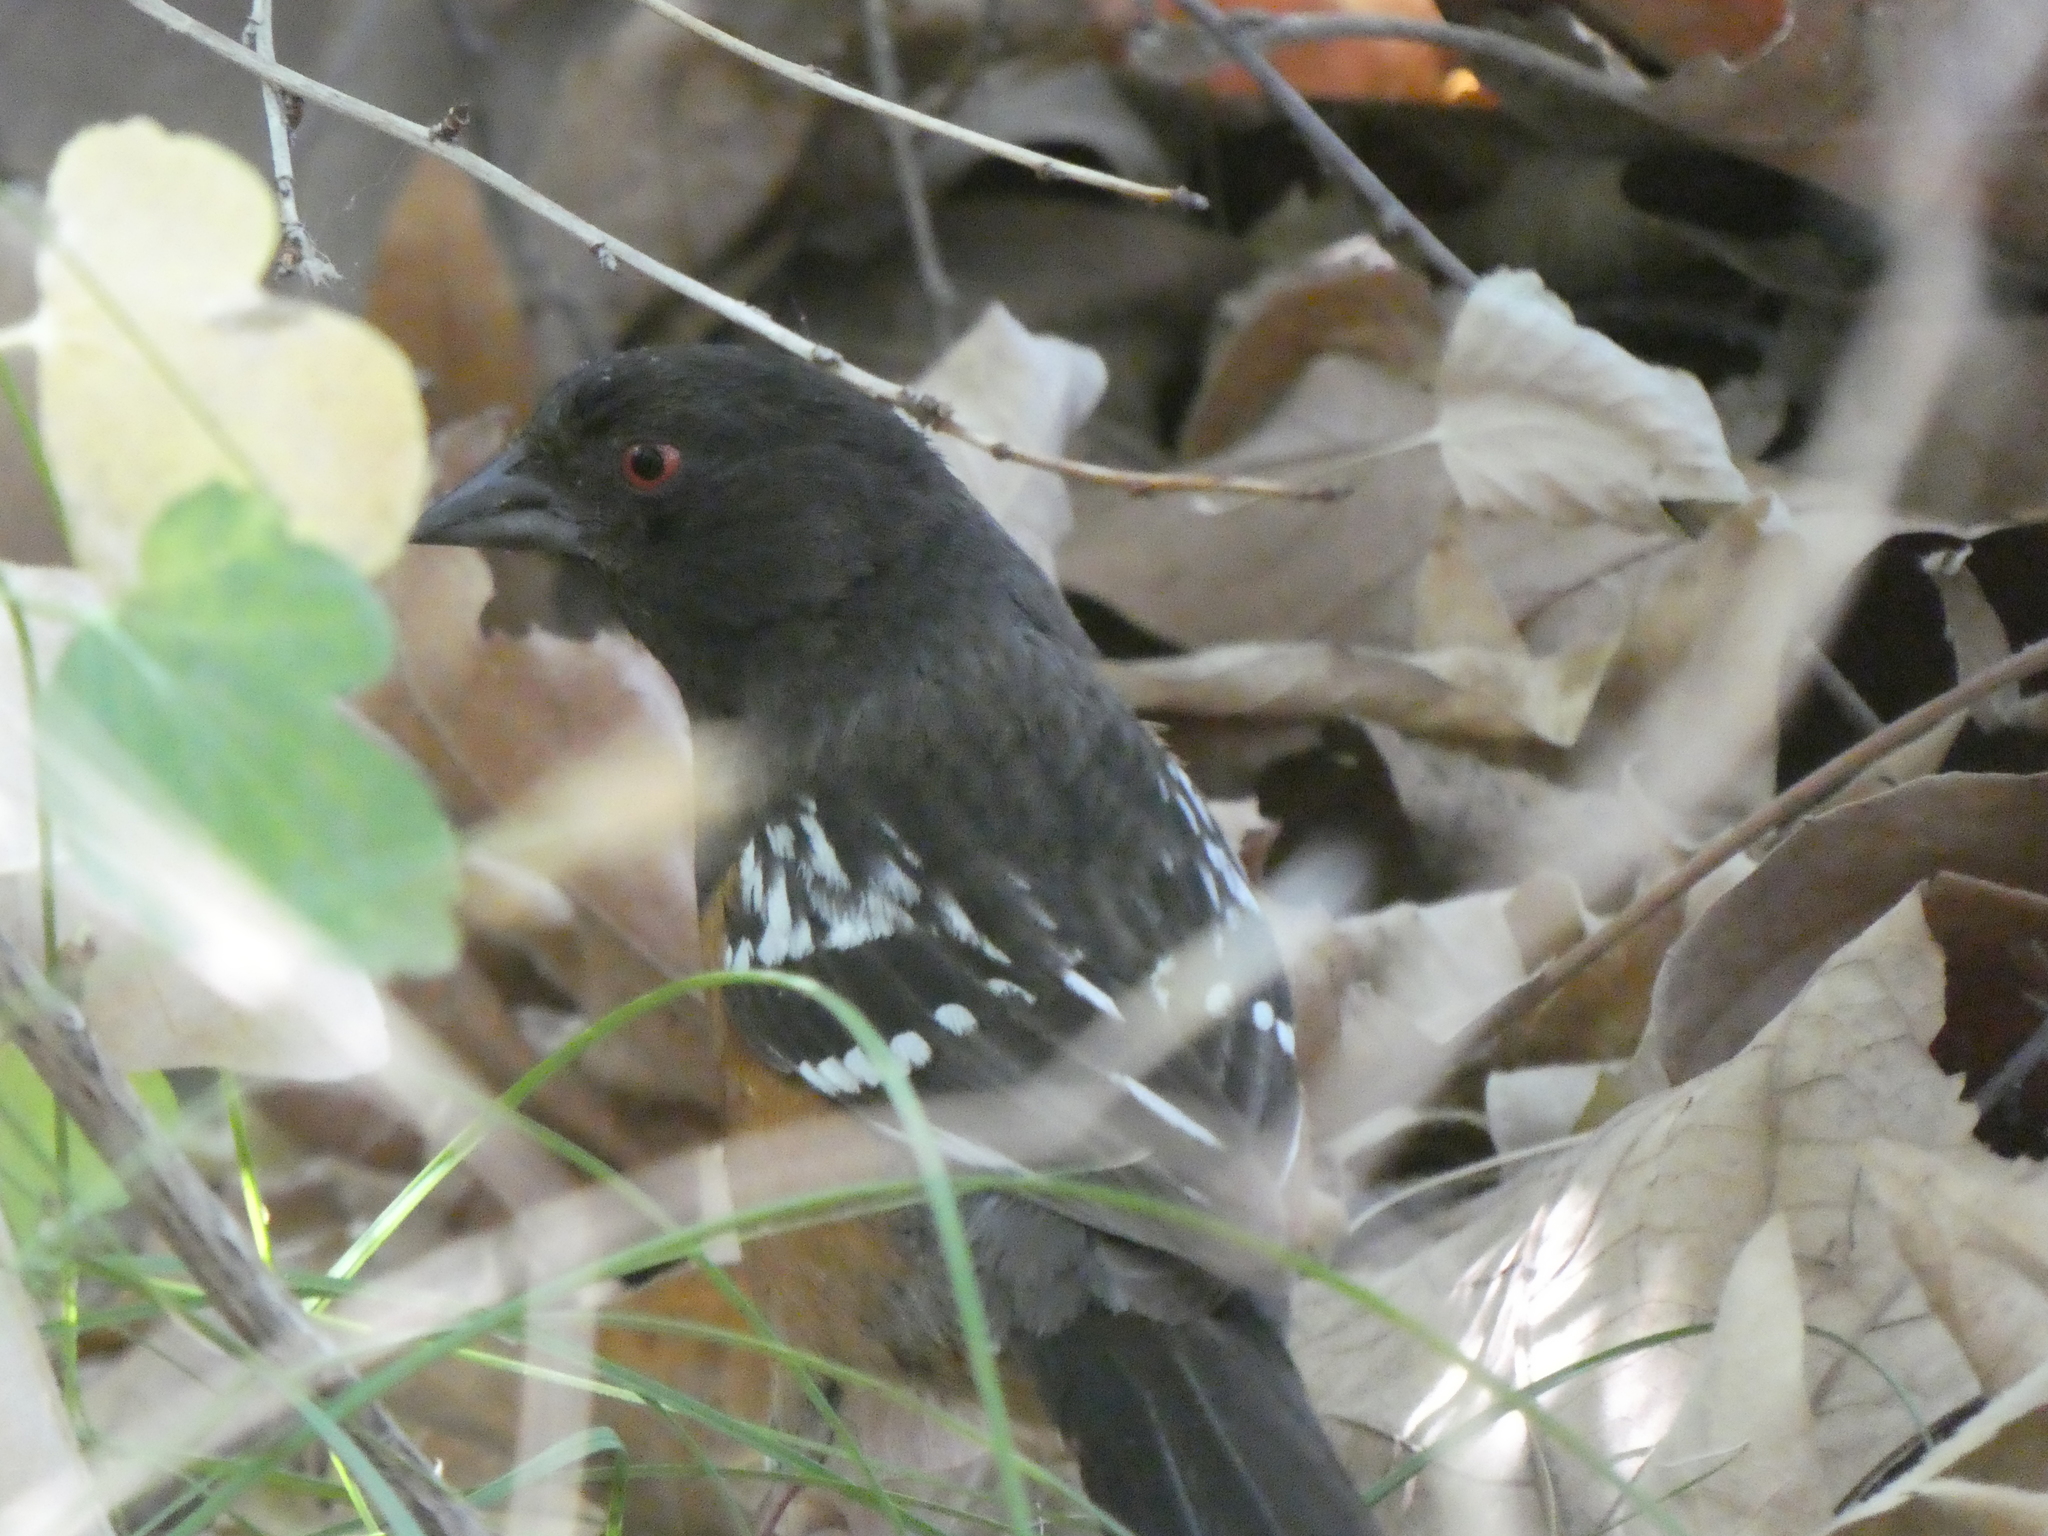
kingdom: Animalia
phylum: Chordata
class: Aves
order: Passeriformes
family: Passerellidae
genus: Pipilo
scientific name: Pipilo maculatus
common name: Spotted towhee
